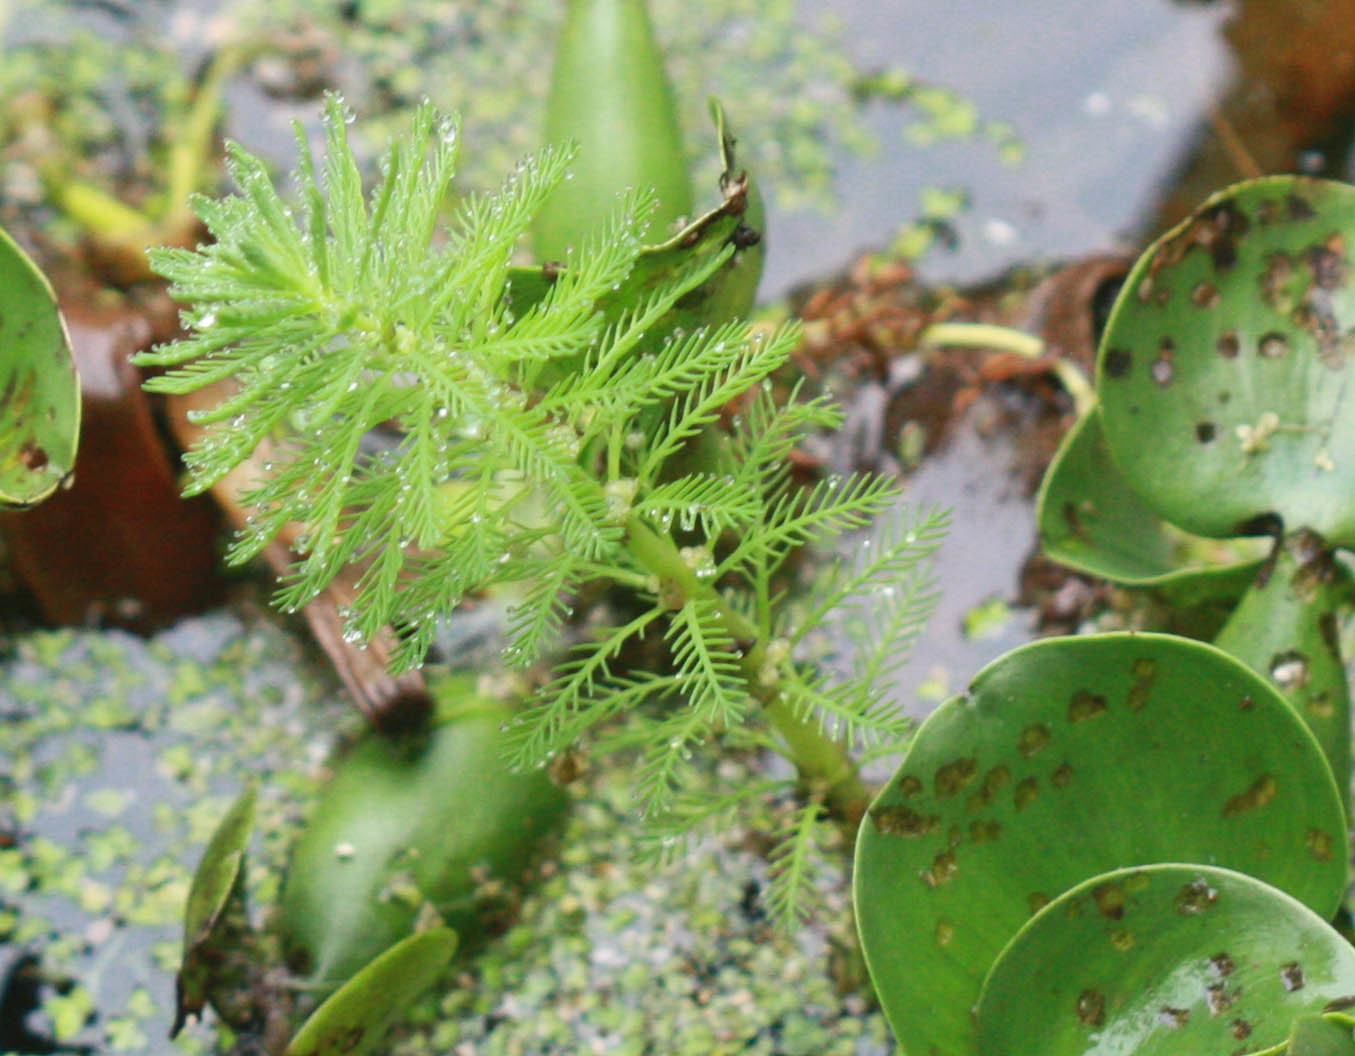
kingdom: Plantae
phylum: Tracheophyta
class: Magnoliopsida
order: Saxifragales
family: Haloragaceae
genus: Myriophyllum
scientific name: Myriophyllum aquaticum
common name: Parrot's feather
